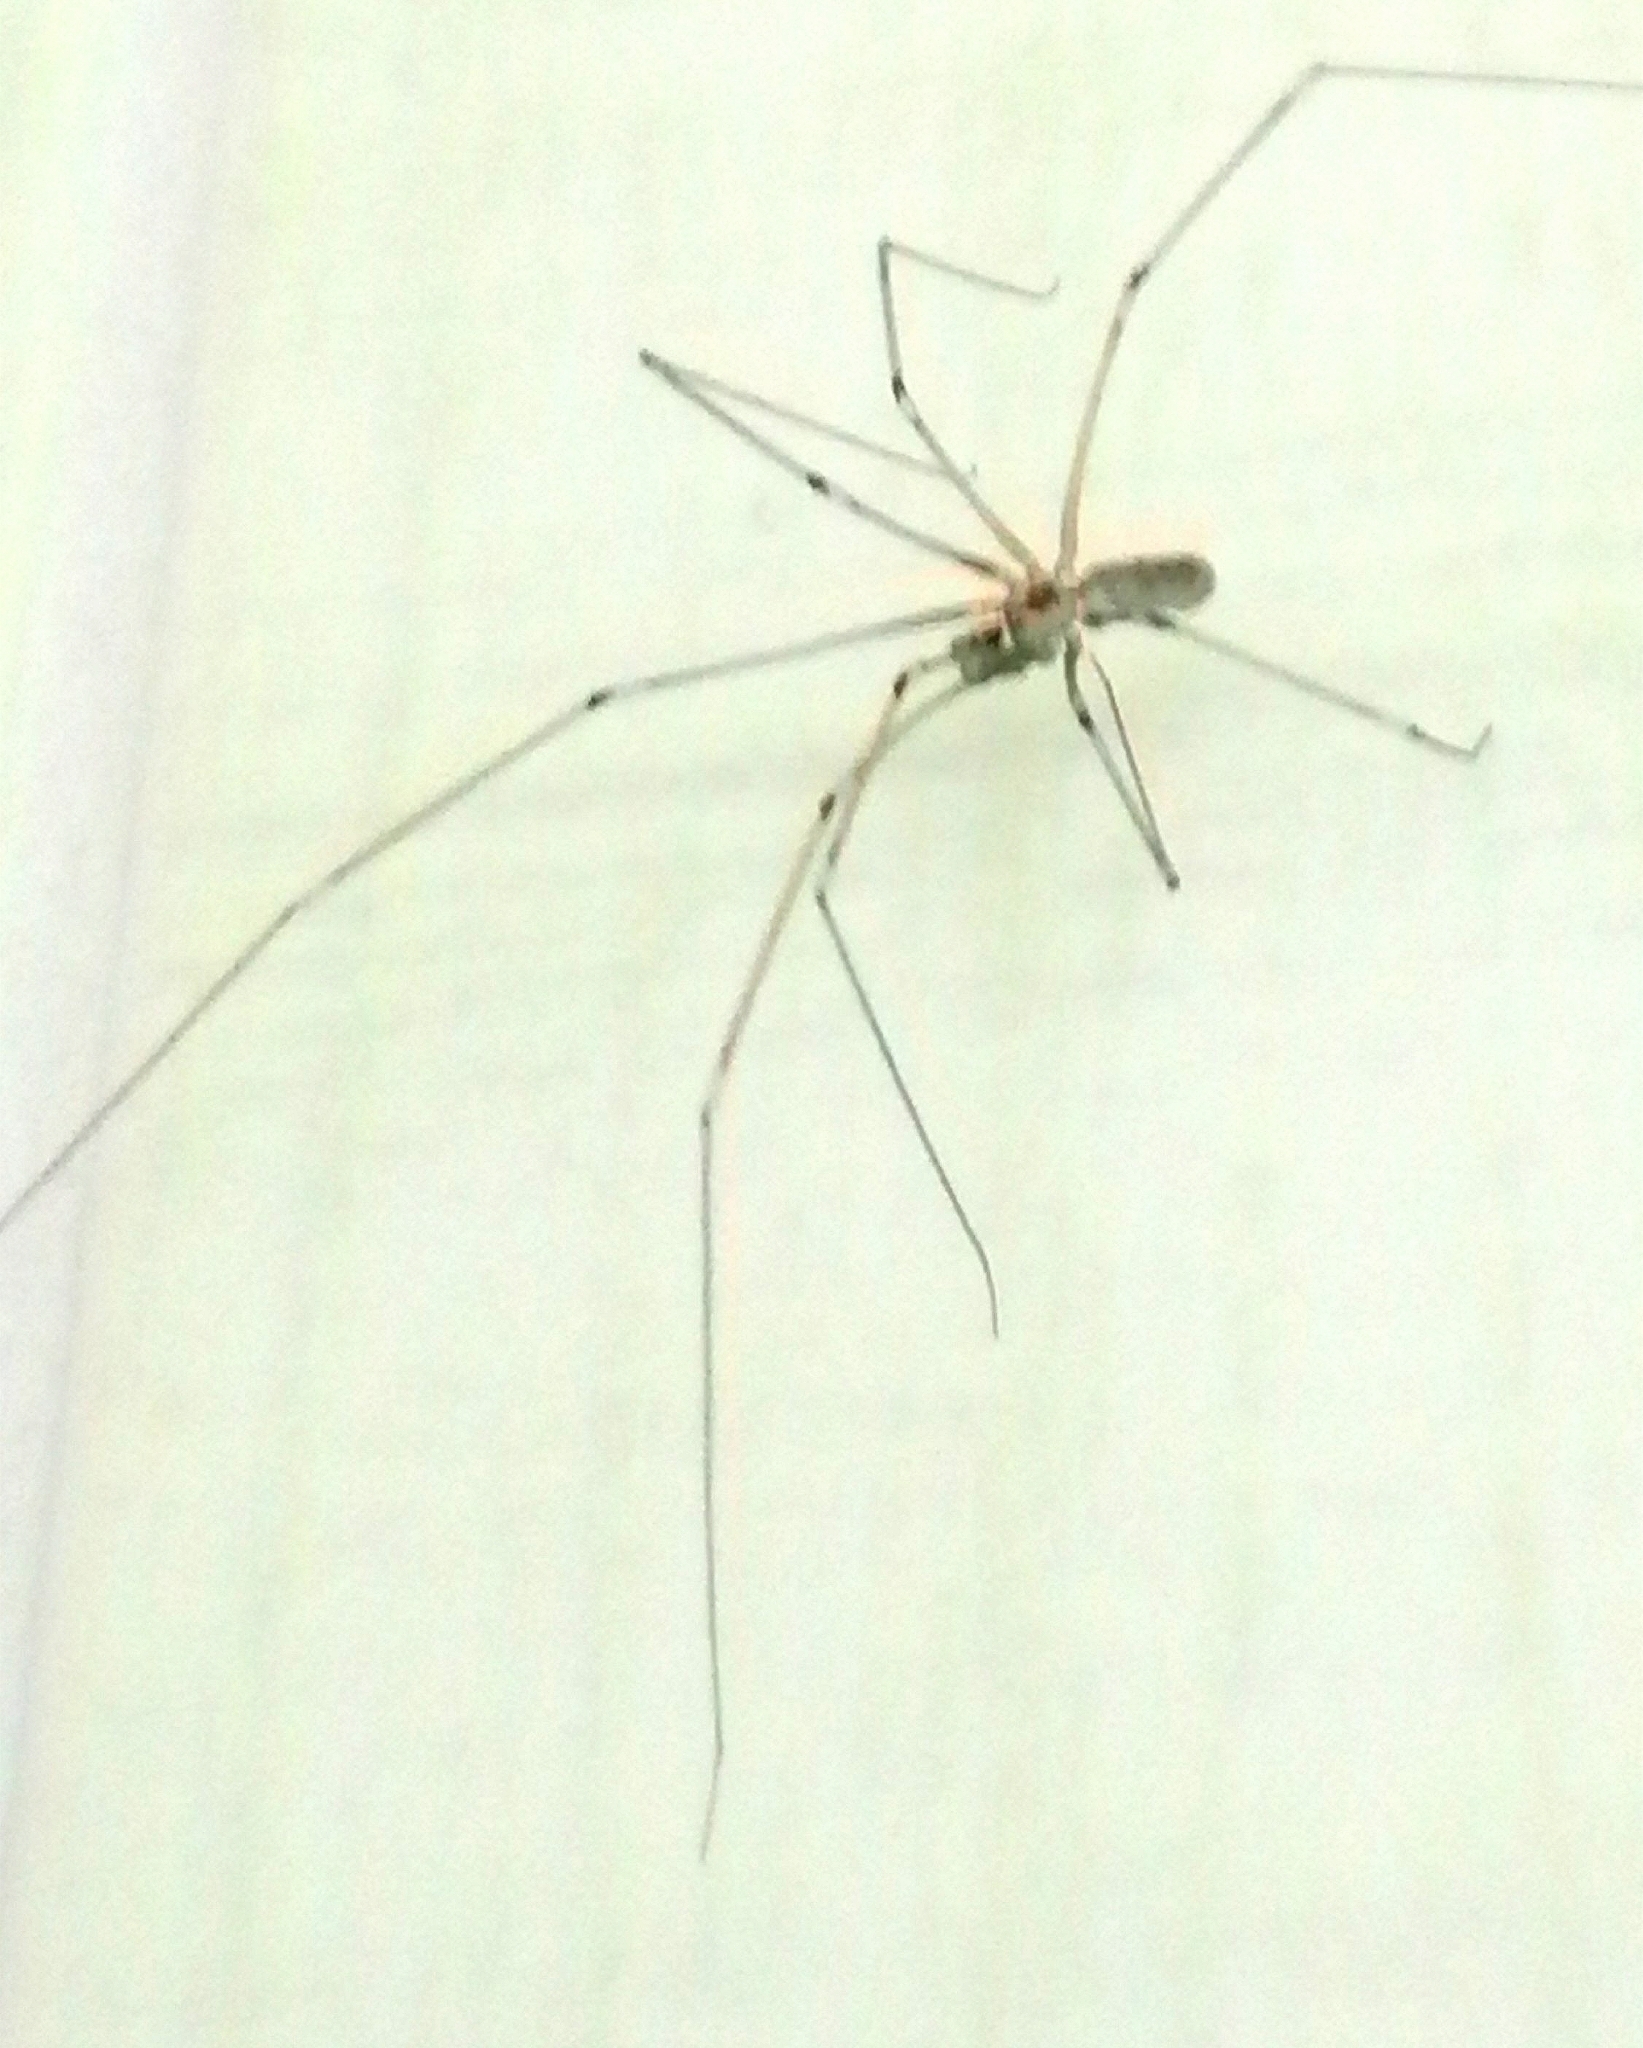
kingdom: Animalia
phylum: Arthropoda
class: Arachnida
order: Araneae
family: Pholcidae
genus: Pholcus
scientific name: Pholcus phalangioides
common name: Longbodied cellar spider
